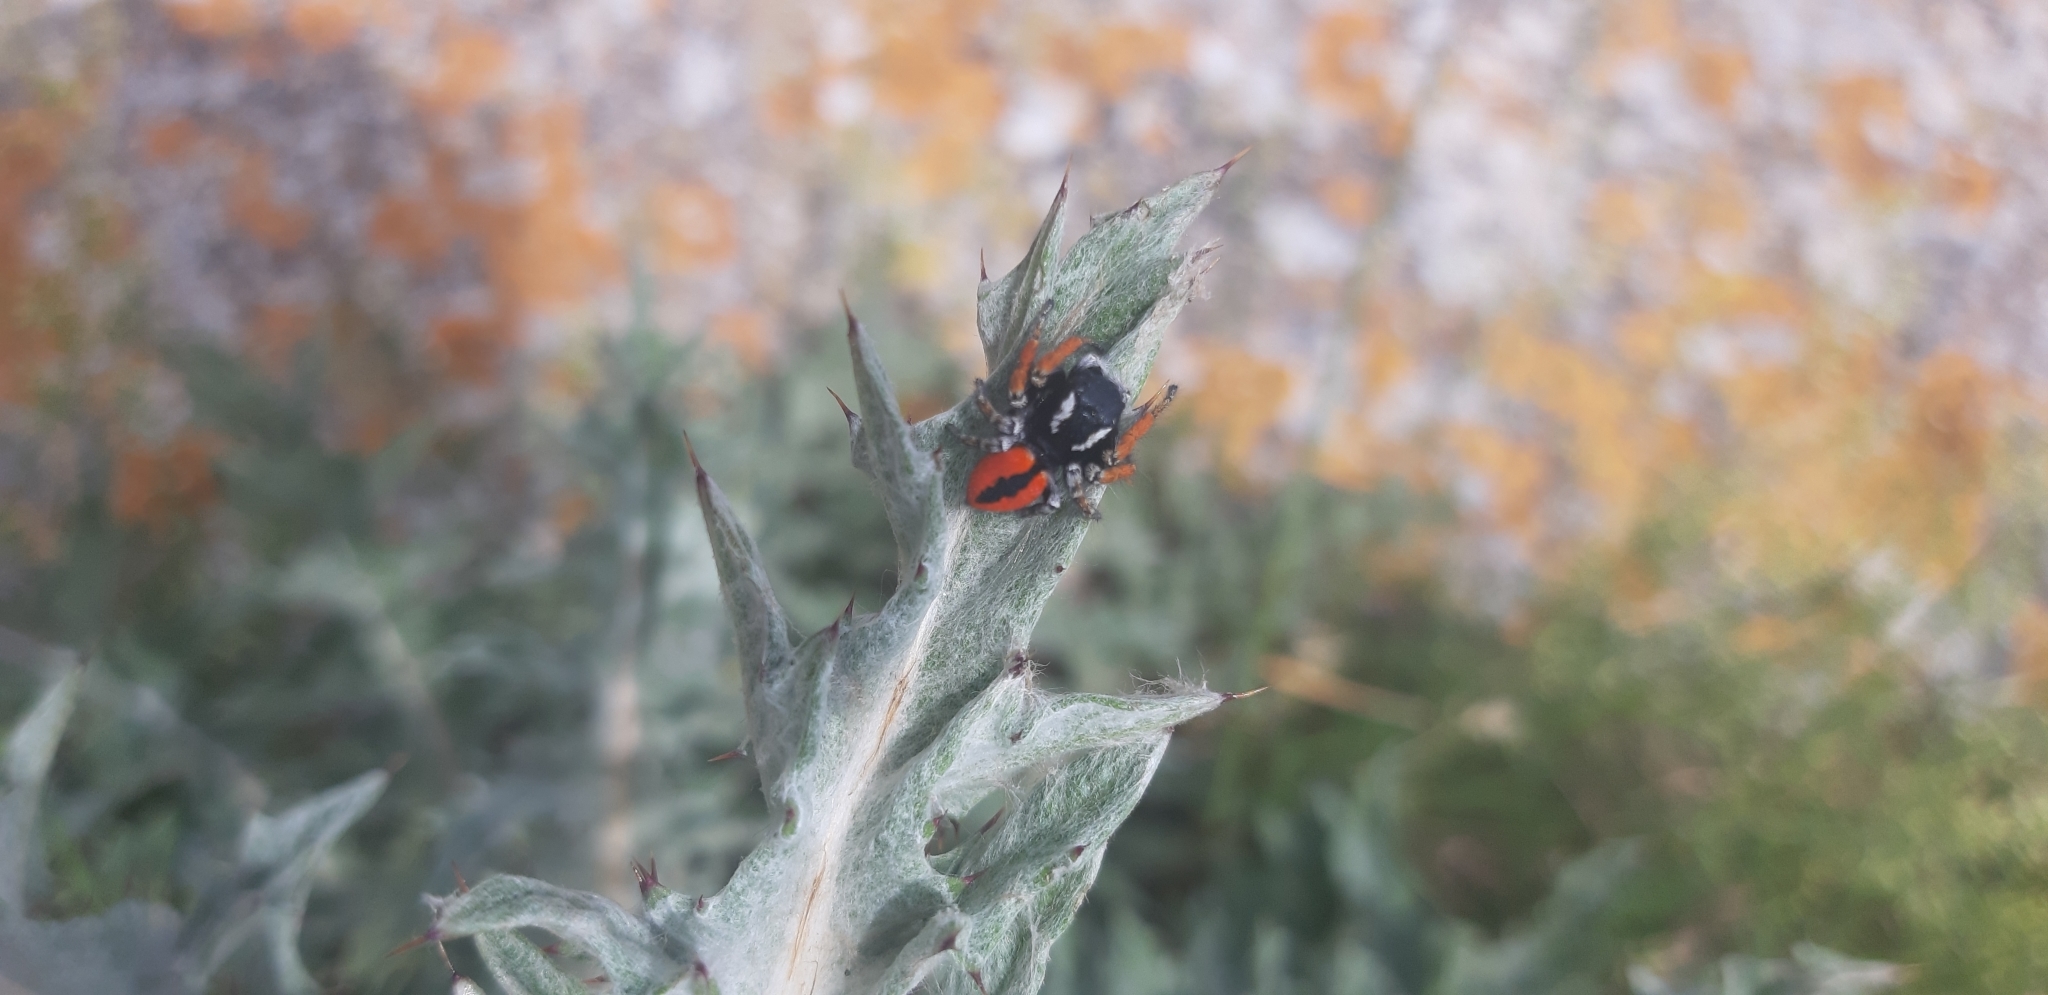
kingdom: Animalia
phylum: Arthropoda
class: Arachnida
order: Araneae
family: Salticidae
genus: Philaeus
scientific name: Philaeus chrysops
